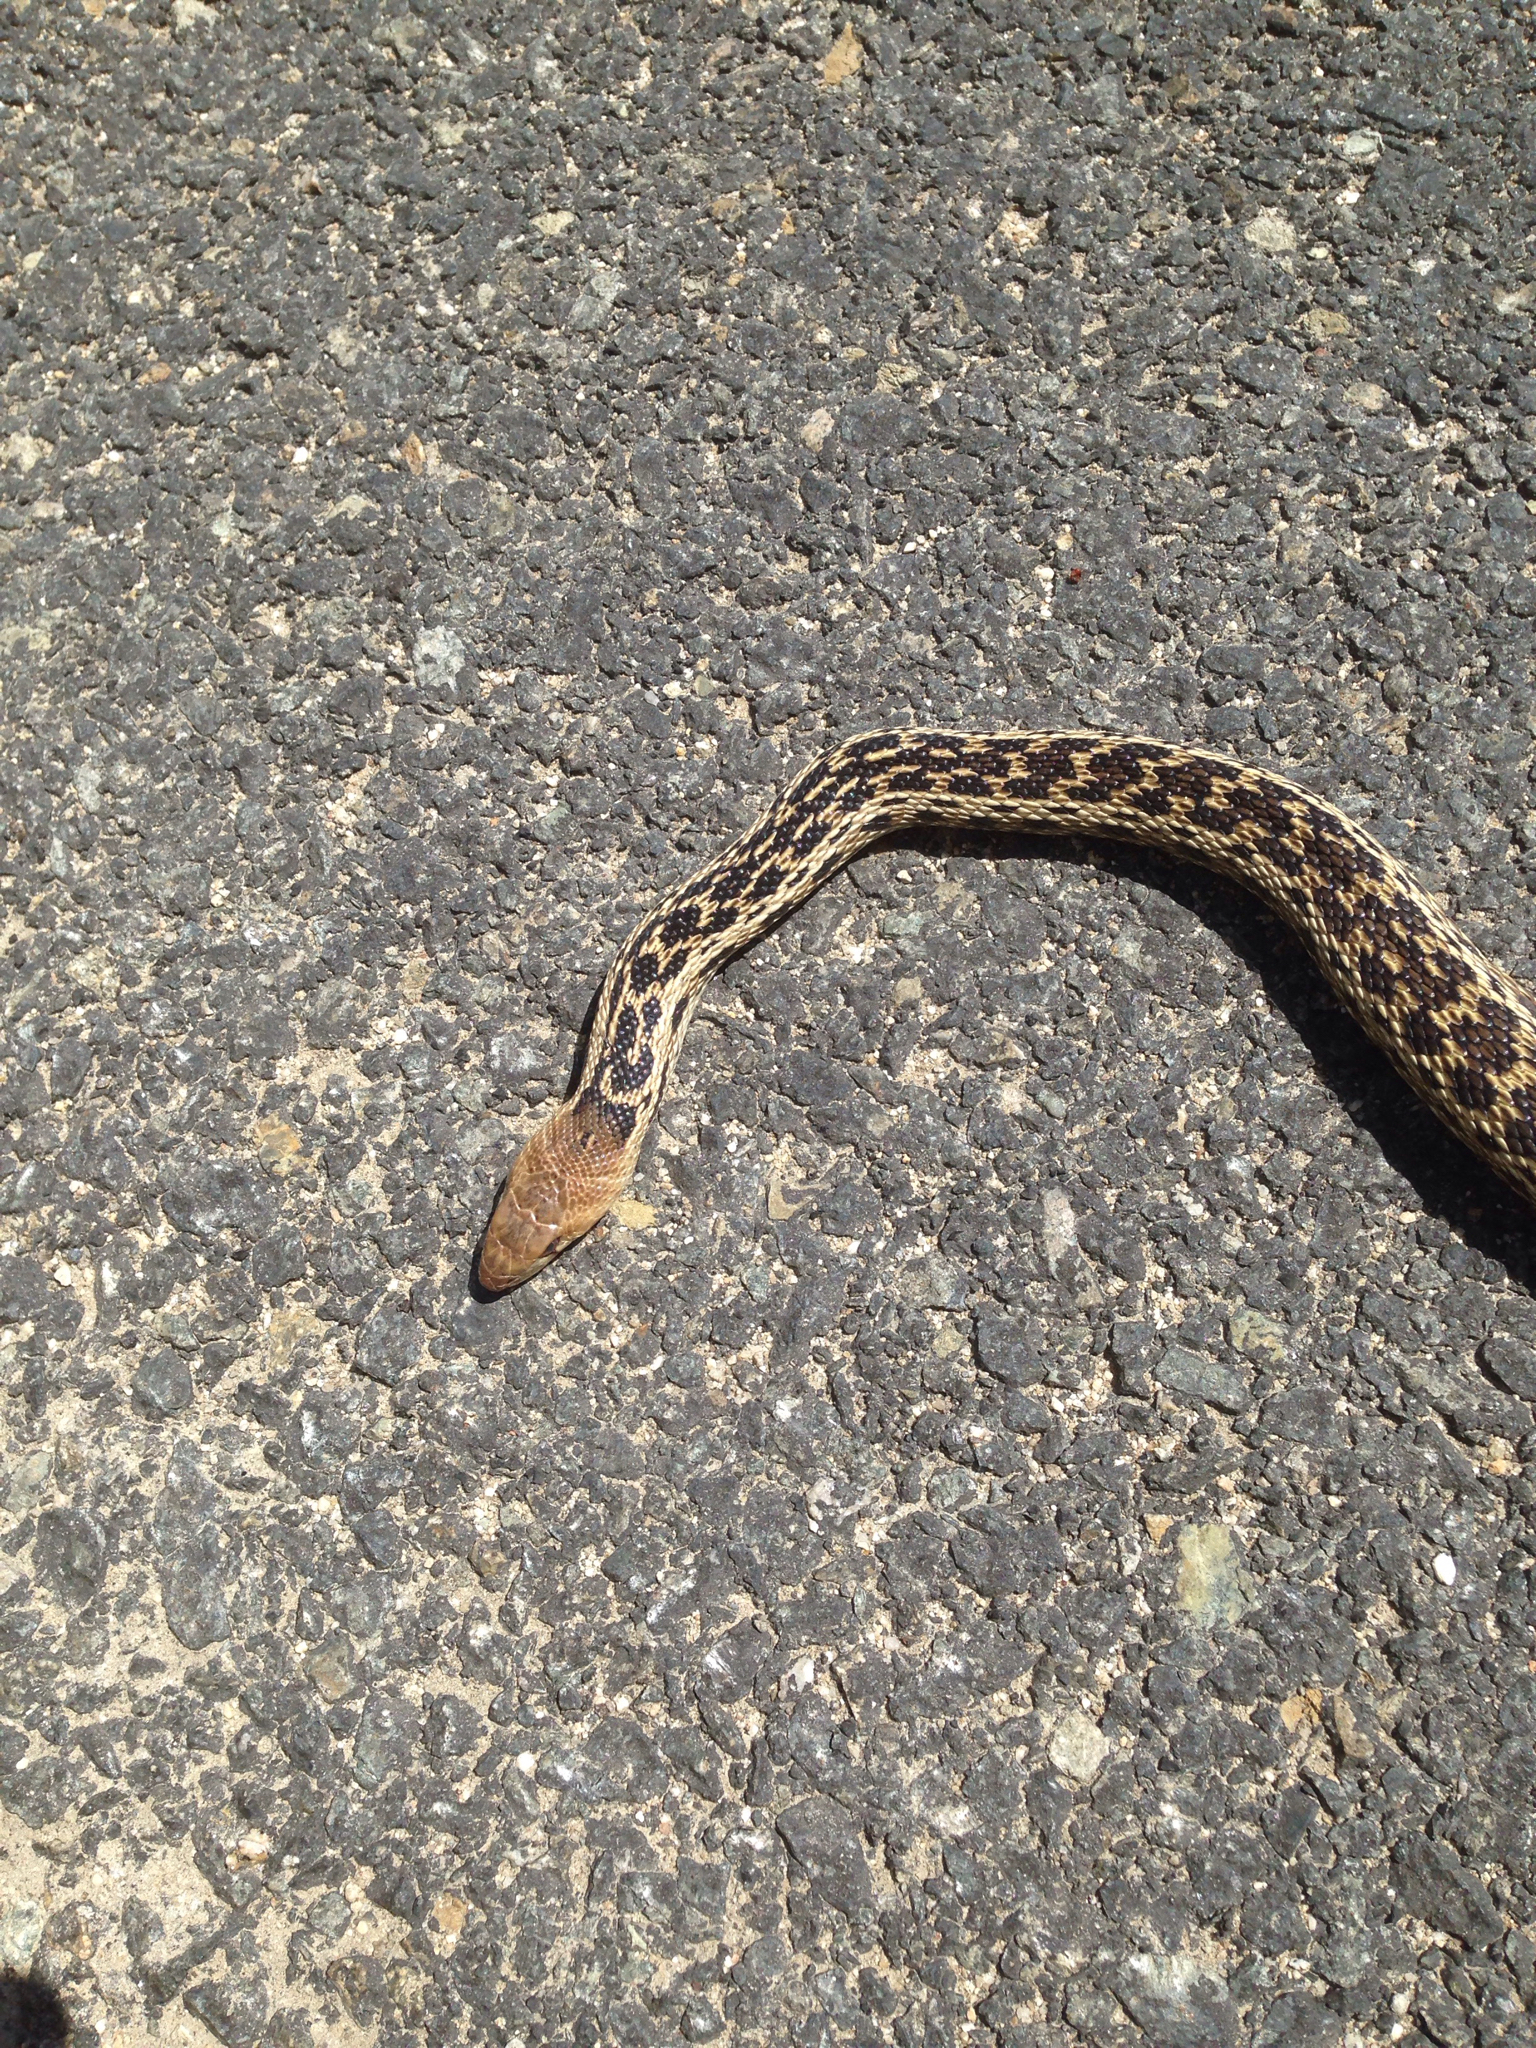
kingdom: Animalia
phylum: Chordata
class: Squamata
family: Colubridae
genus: Pituophis
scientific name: Pituophis catenifer
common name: Gopher snake
